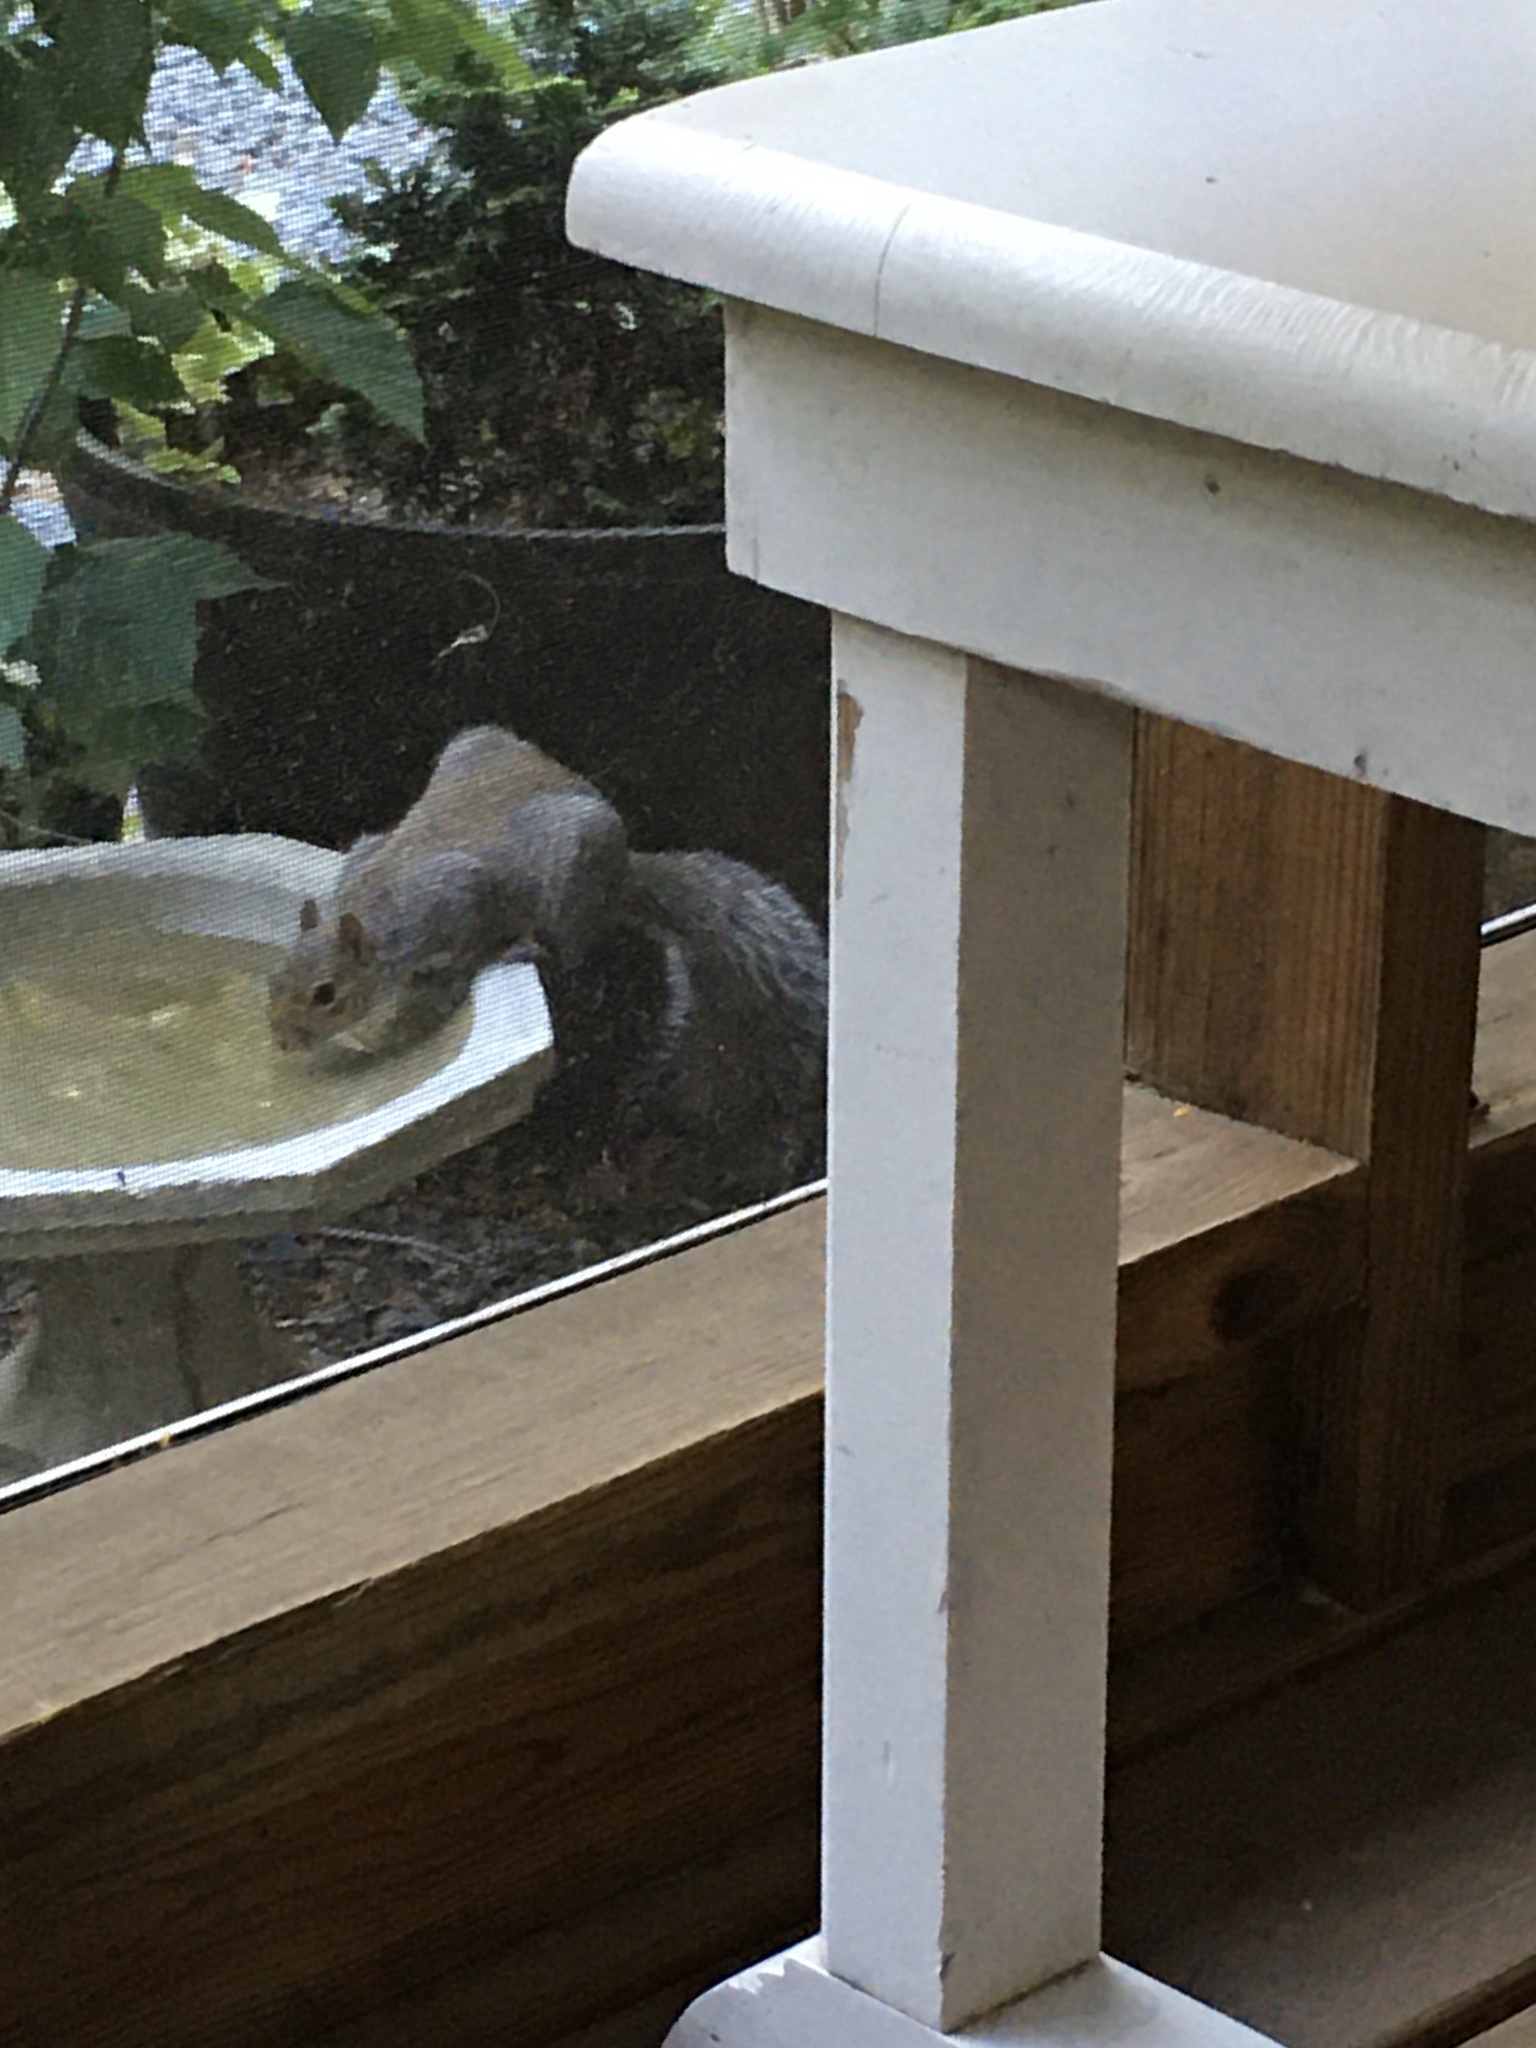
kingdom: Animalia
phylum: Chordata
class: Mammalia
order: Rodentia
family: Sciuridae
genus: Sciurus
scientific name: Sciurus carolinensis
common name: Eastern gray squirrel
